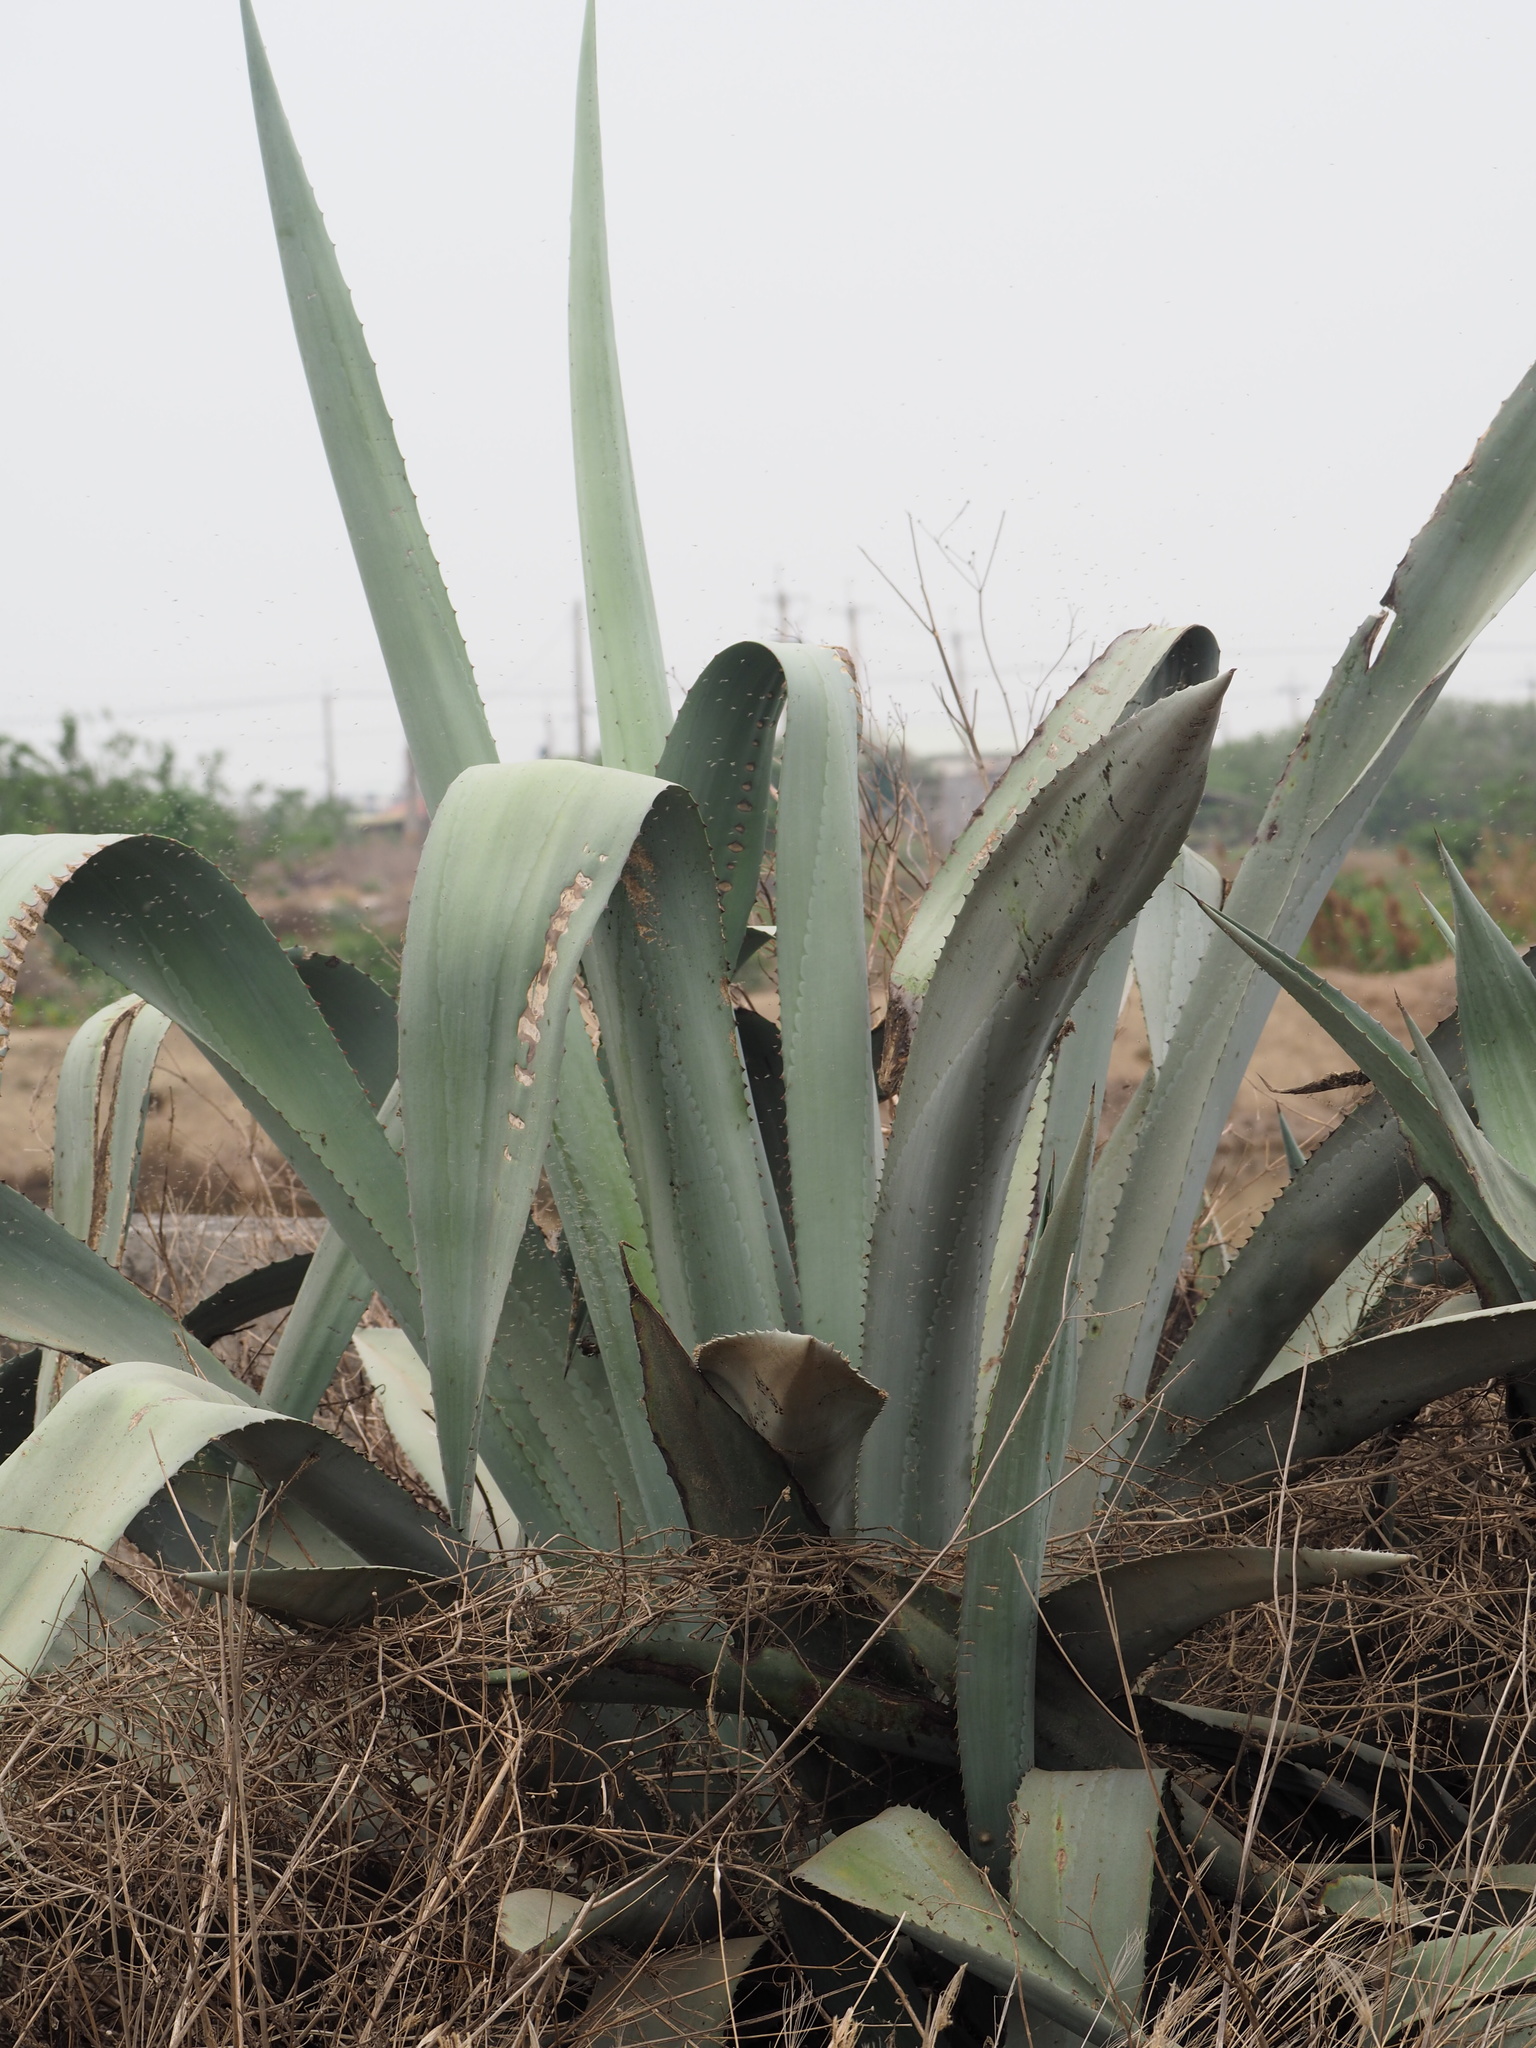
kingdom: Plantae
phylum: Tracheophyta
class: Liliopsida
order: Asparagales
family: Asparagaceae
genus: Agave
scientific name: Agave americana
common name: Centuryplant
